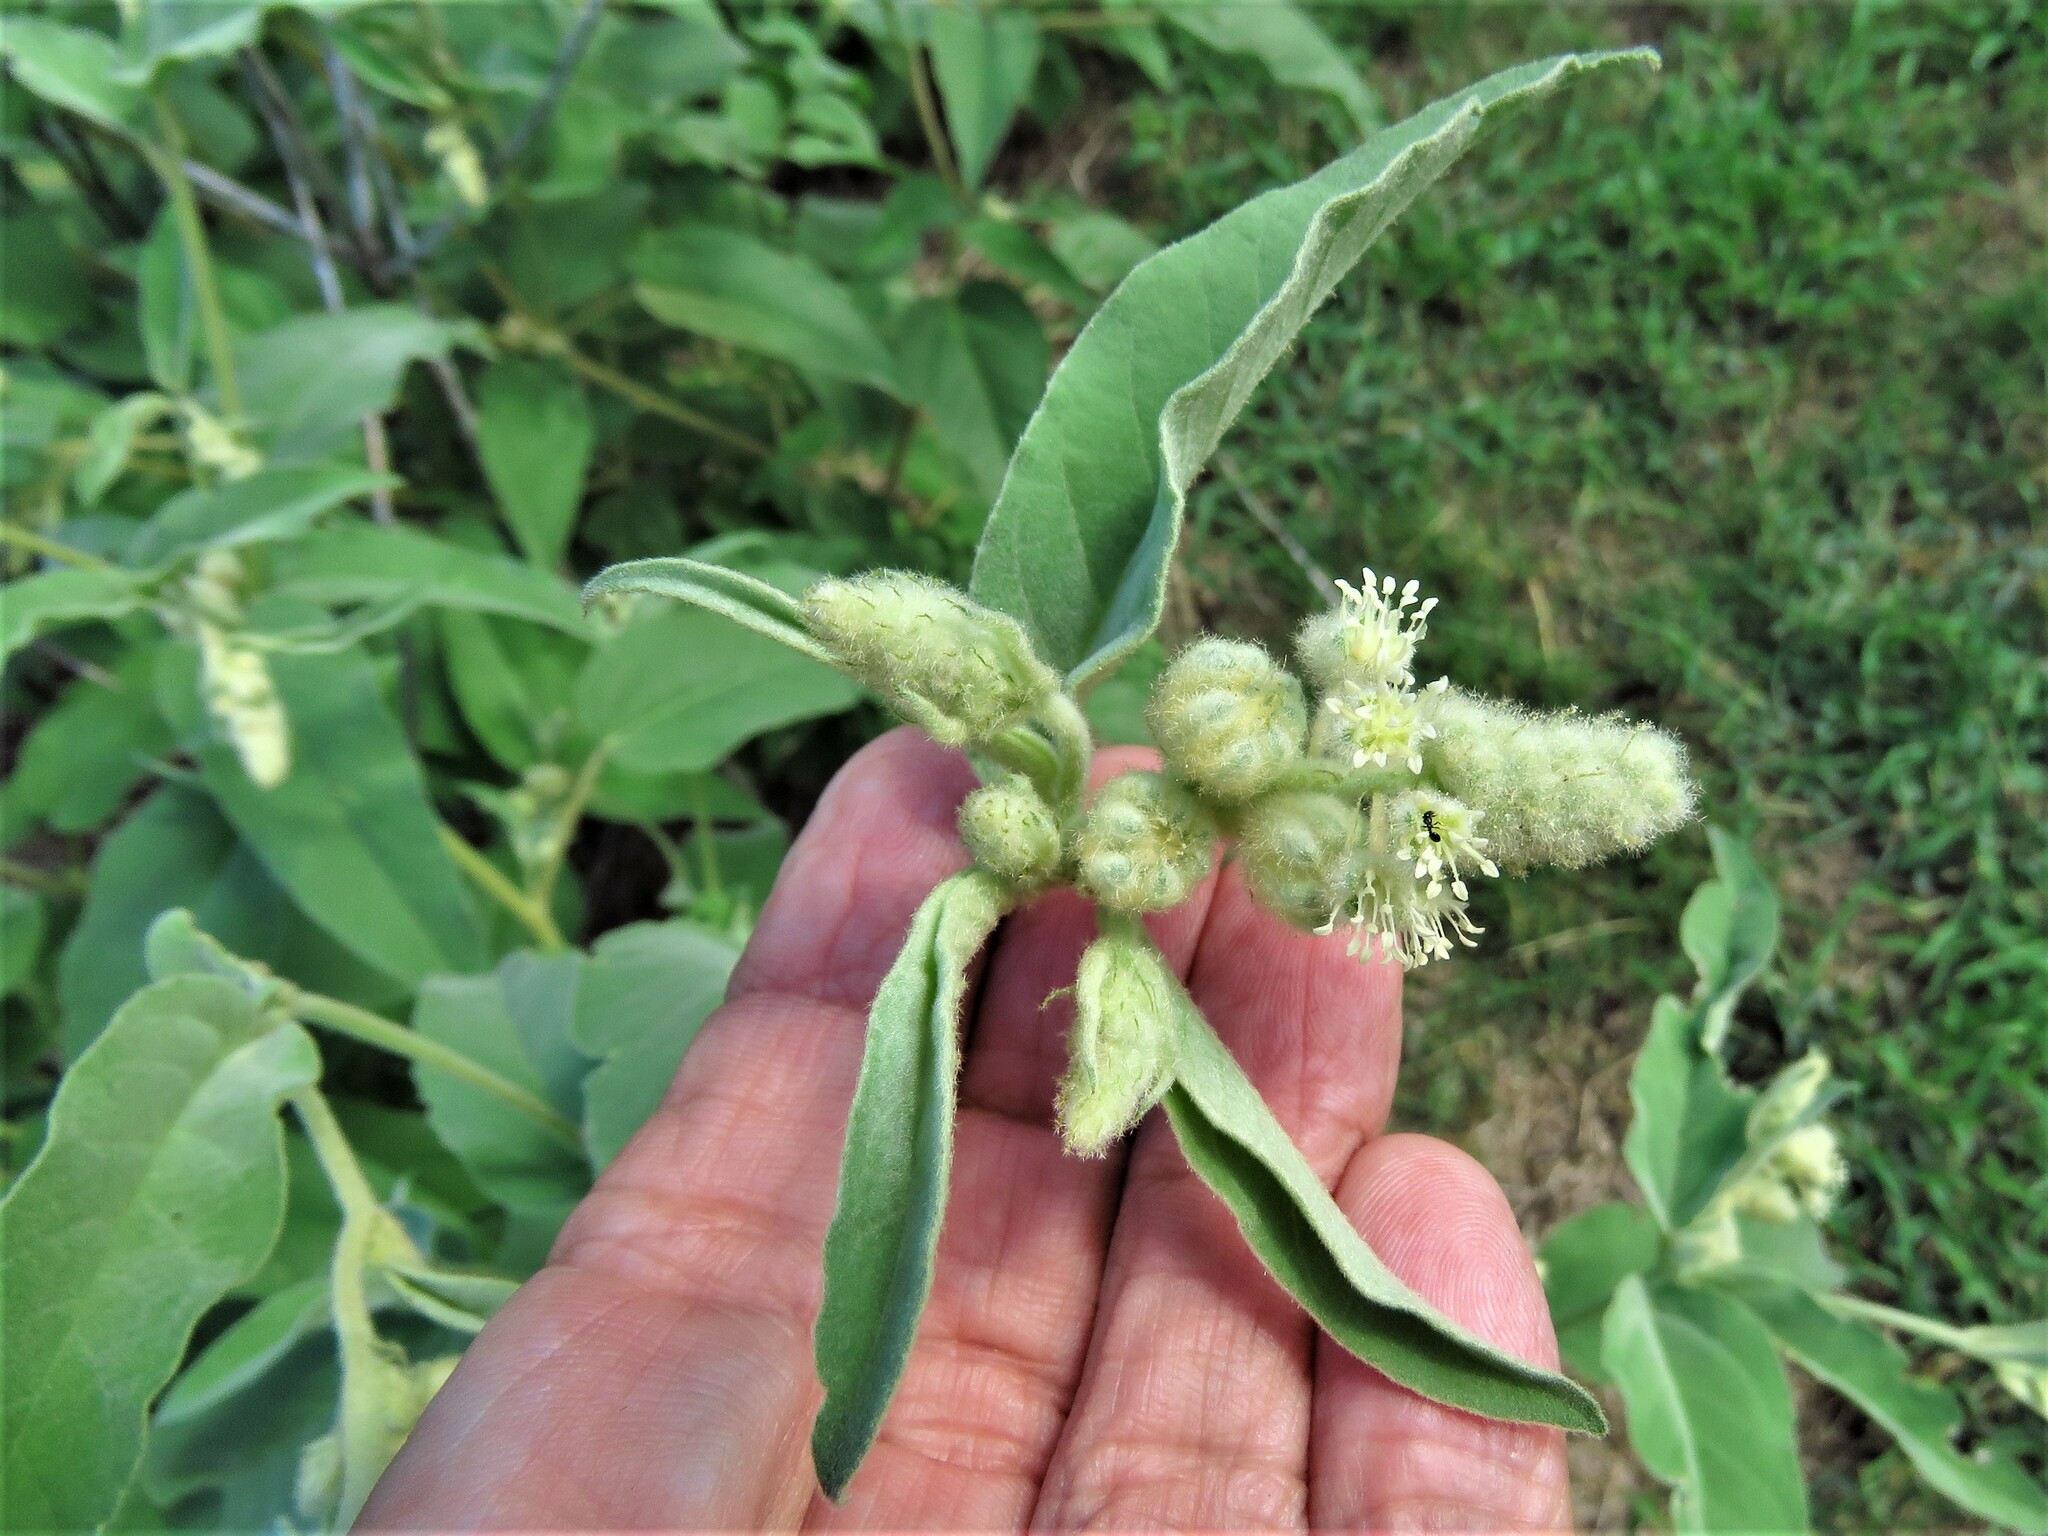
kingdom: Plantae
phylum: Tracheophyta
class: Magnoliopsida
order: Malpighiales
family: Euphorbiaceae
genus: Croton
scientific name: Croton lindheimeri
